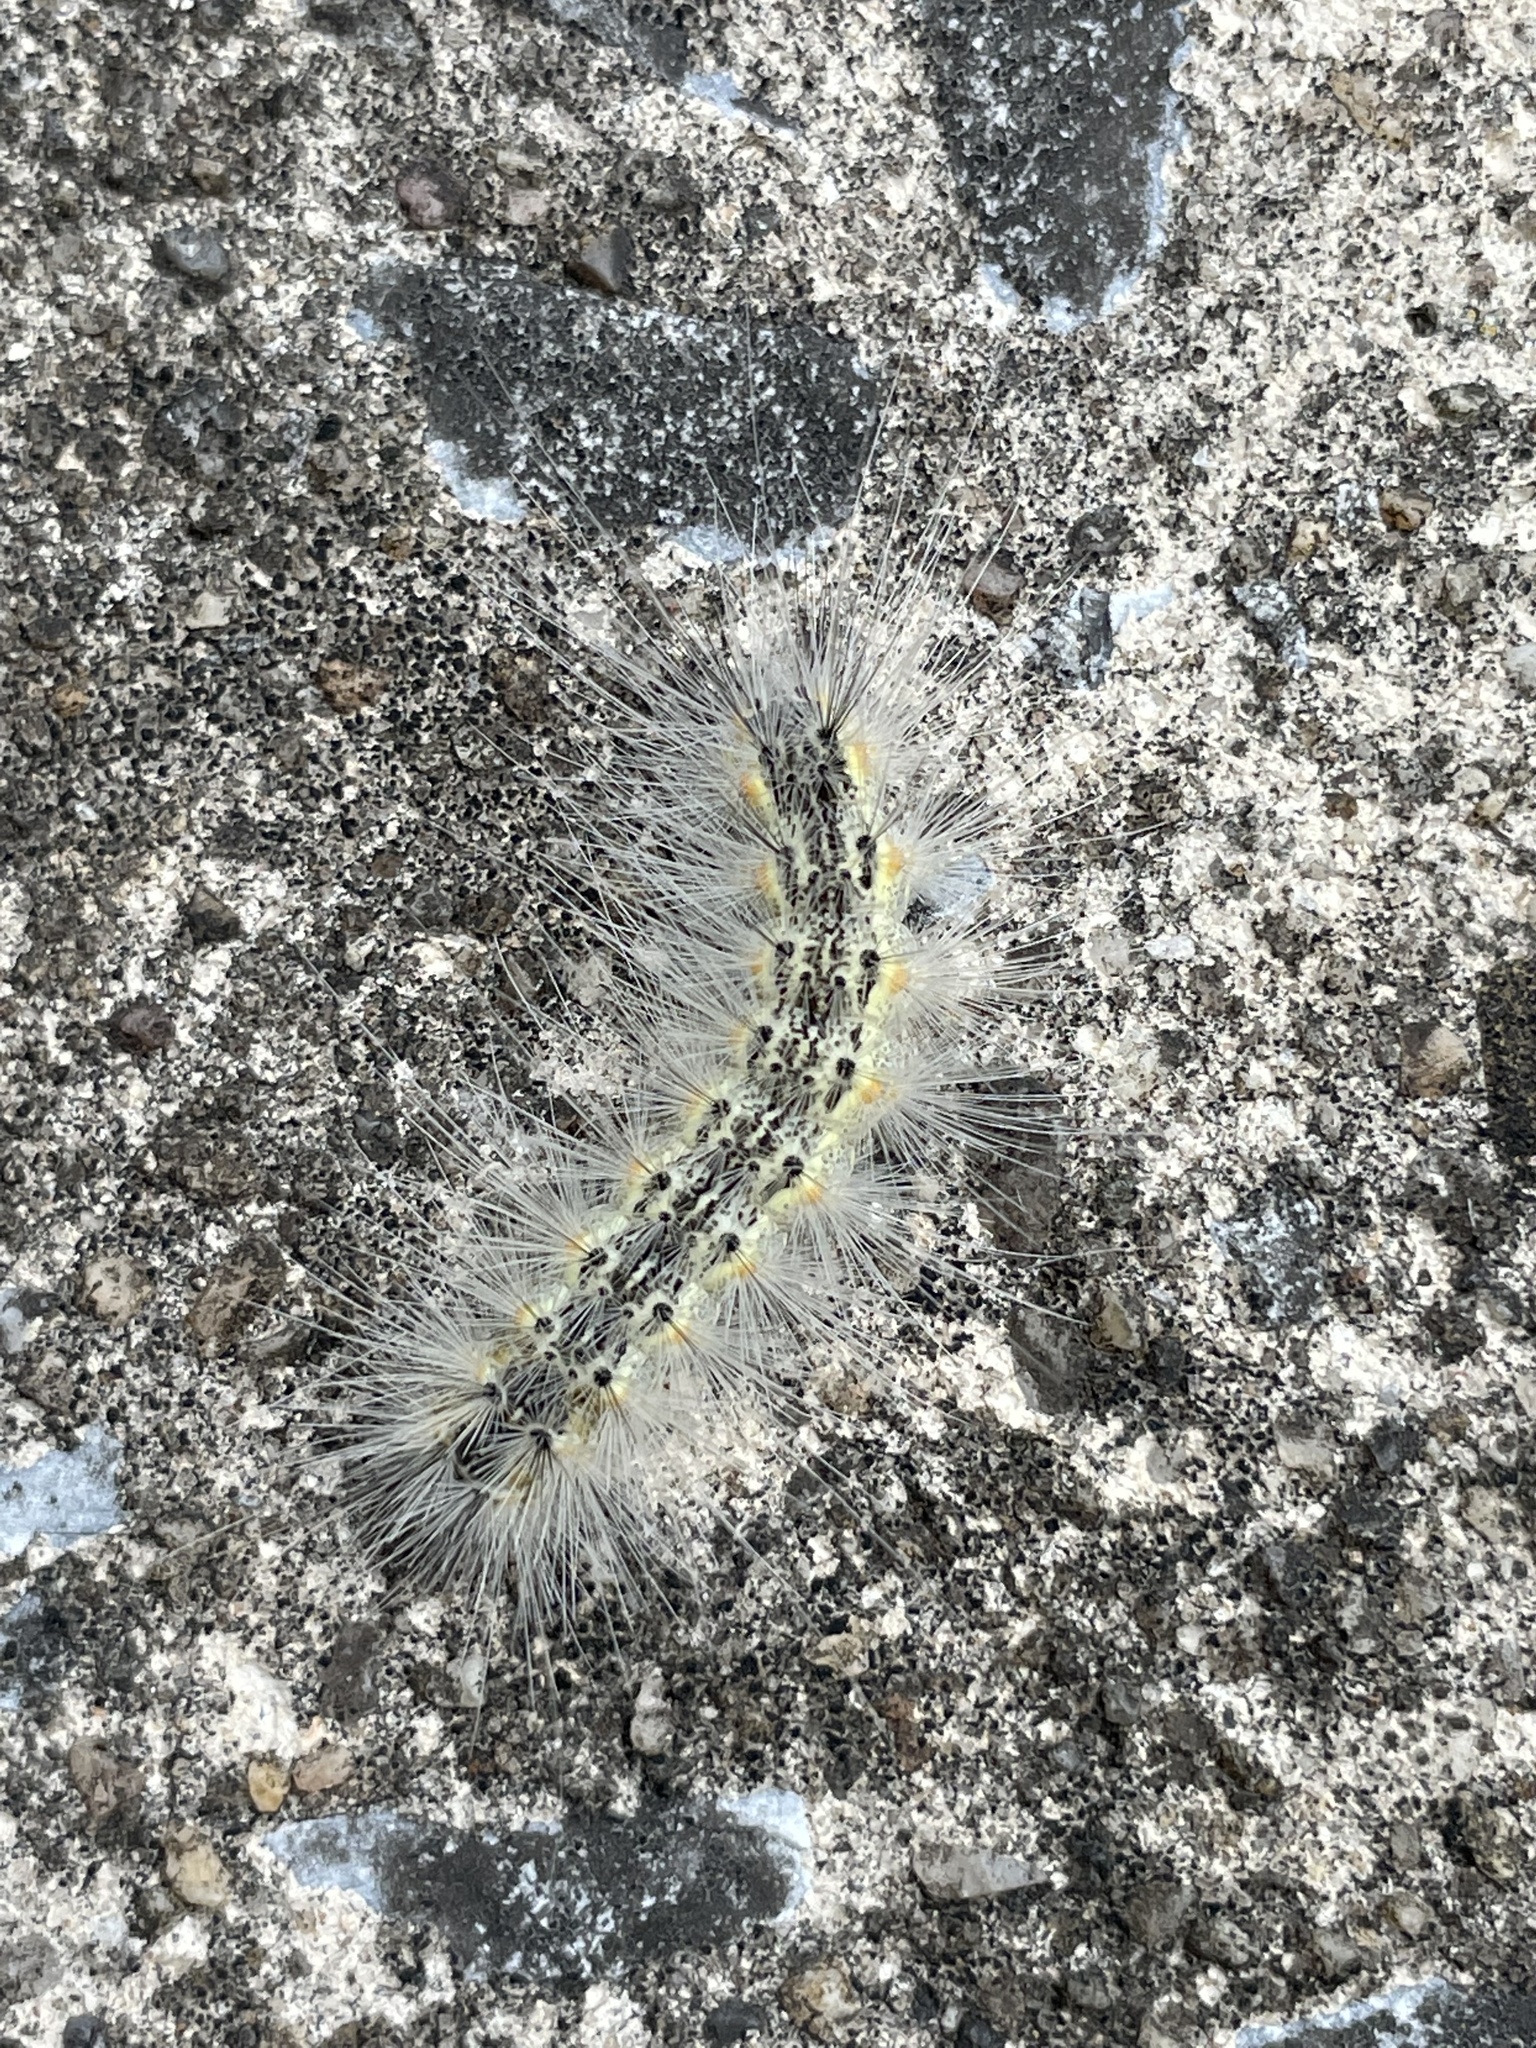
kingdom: Animalia
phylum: Arthropoda
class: Insecta
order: Lepidoptera
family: Erebidae
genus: Hyphantria
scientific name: Hyphantria cunea
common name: American white moth
